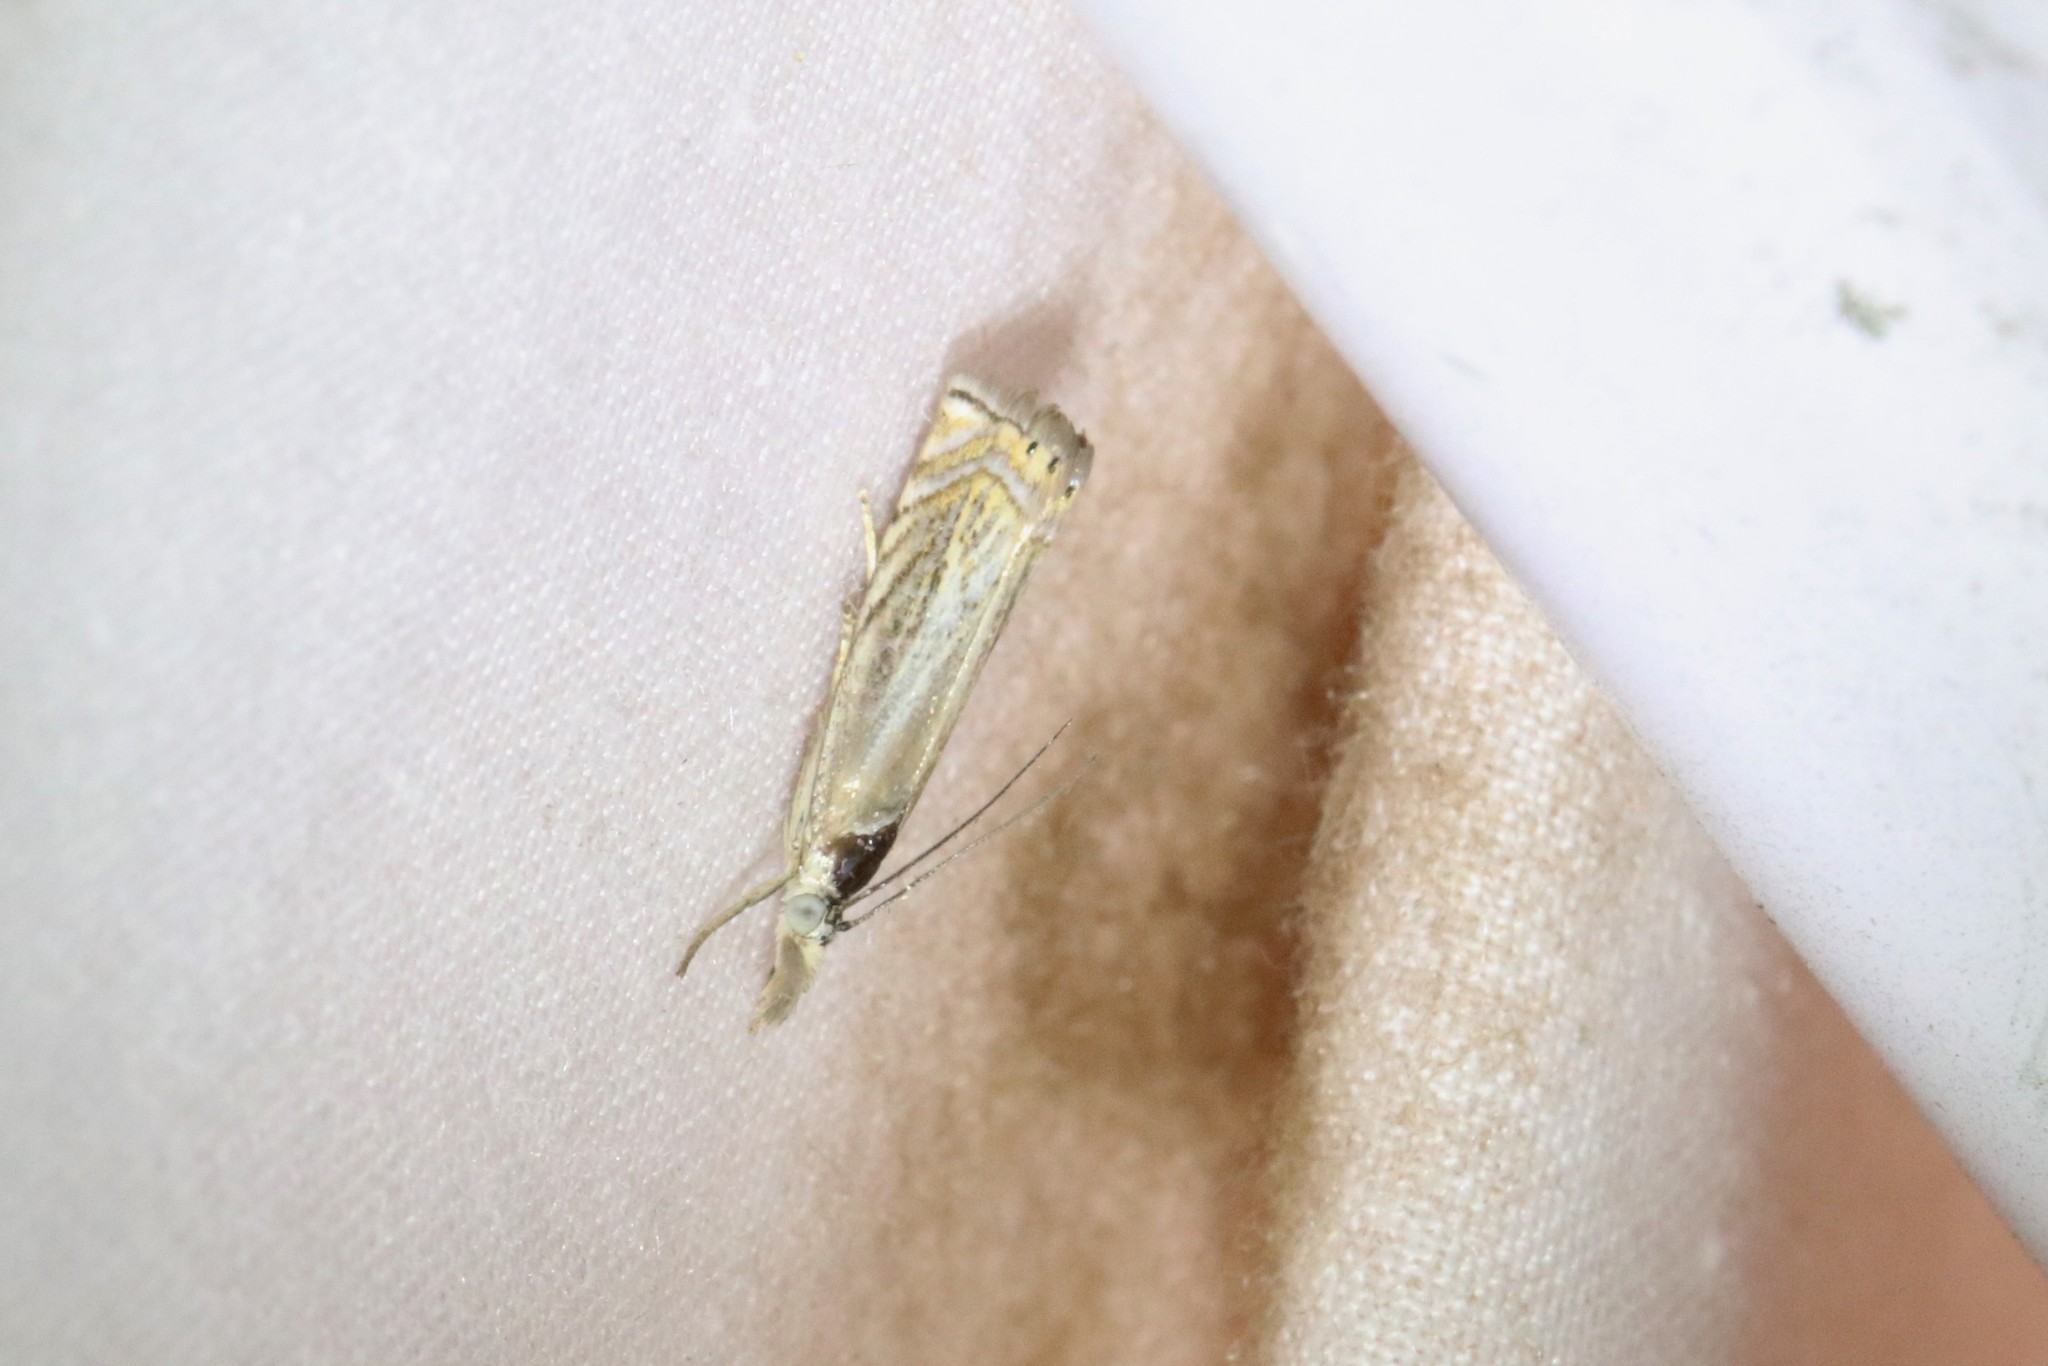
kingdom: Animalia
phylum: Arthropoda
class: Insecta
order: Lepidoptera
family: Crambidae
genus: Chrysoteuchia
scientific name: Chrysoteuchia topiarius
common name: Topiary grass-veneer
